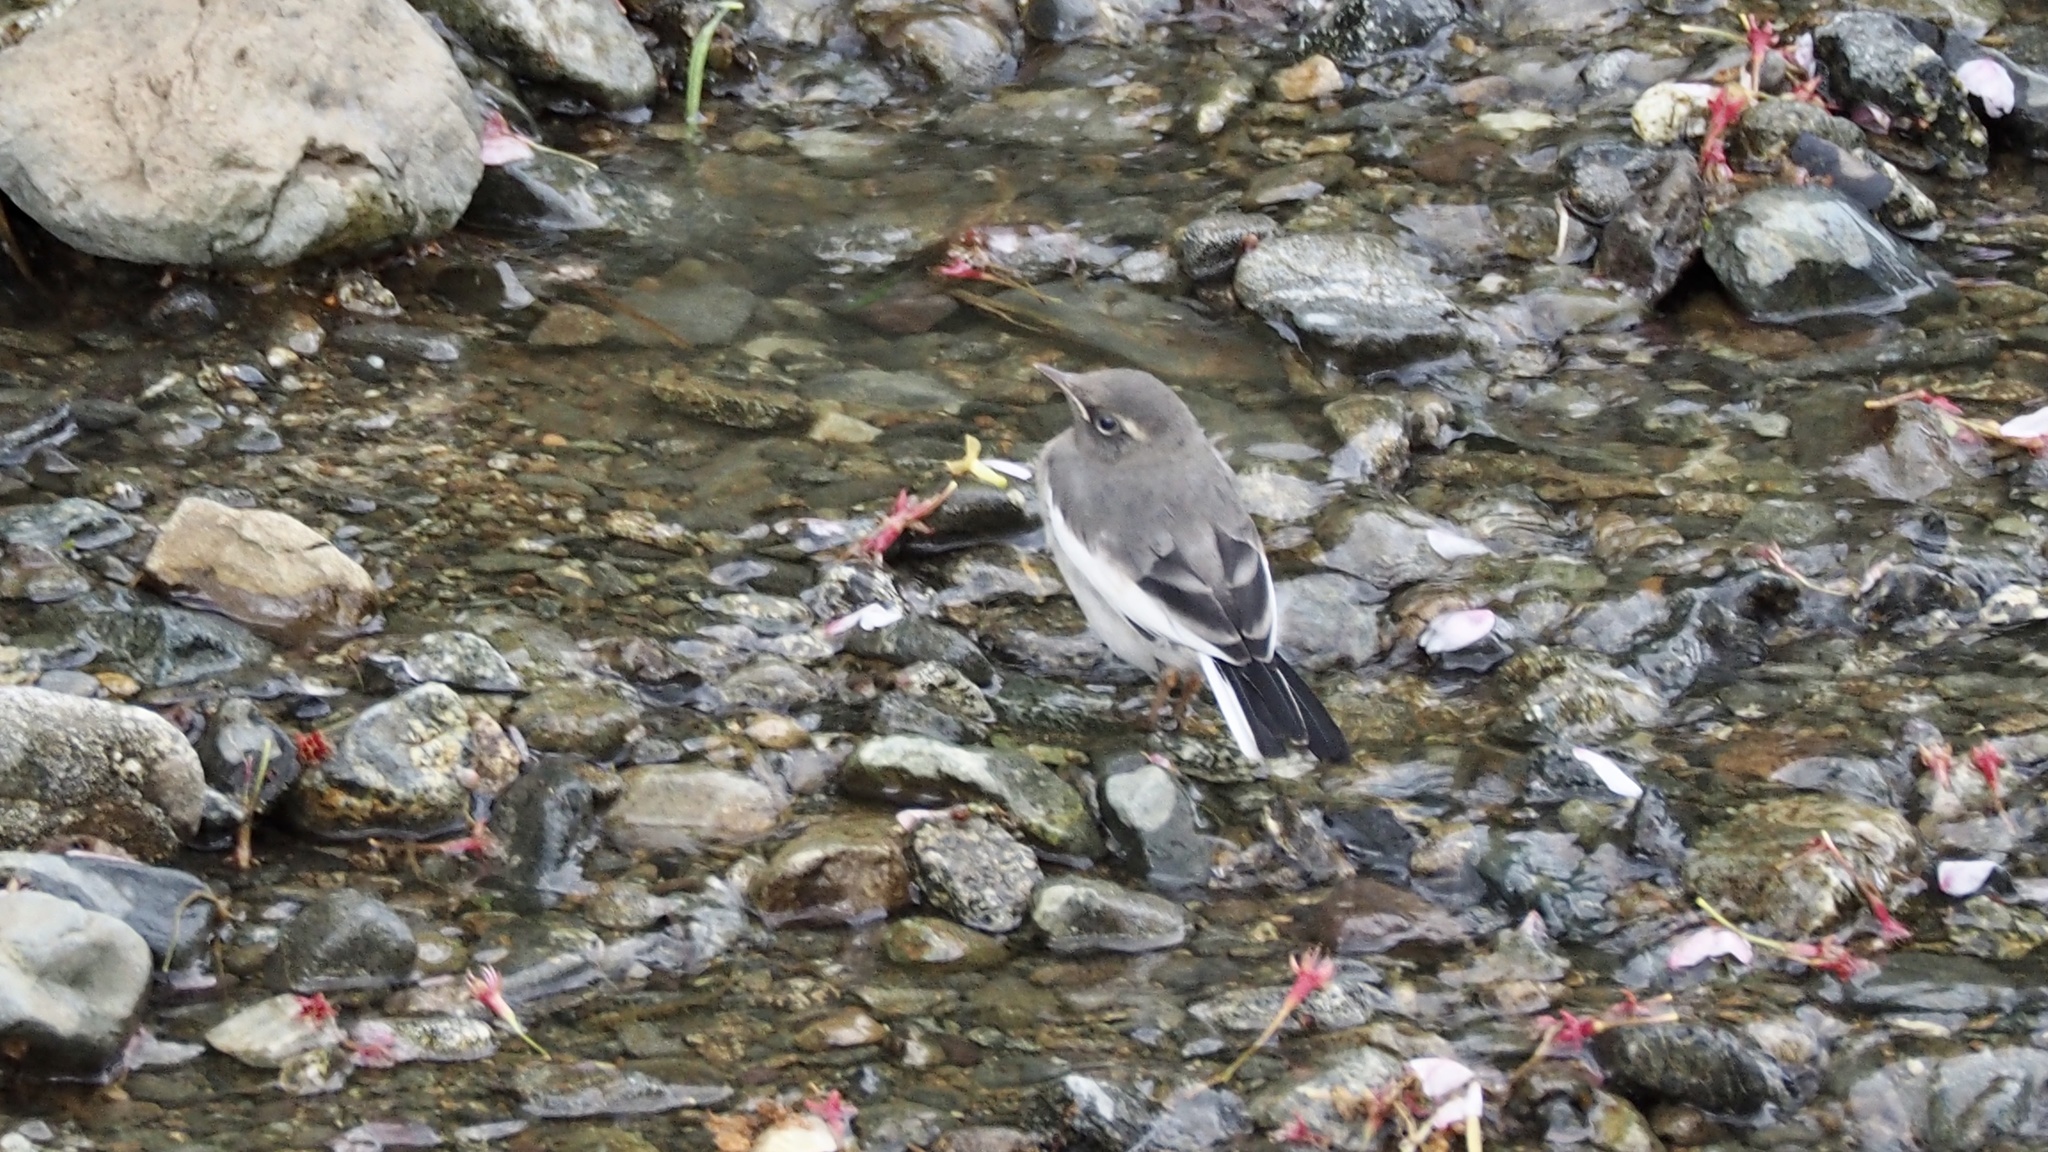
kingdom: Animalia
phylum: Chordata
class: Aves
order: Passeriformes
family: Motacillidae
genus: Motacilla
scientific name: Motacilla grandis
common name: Japanese wagtail
